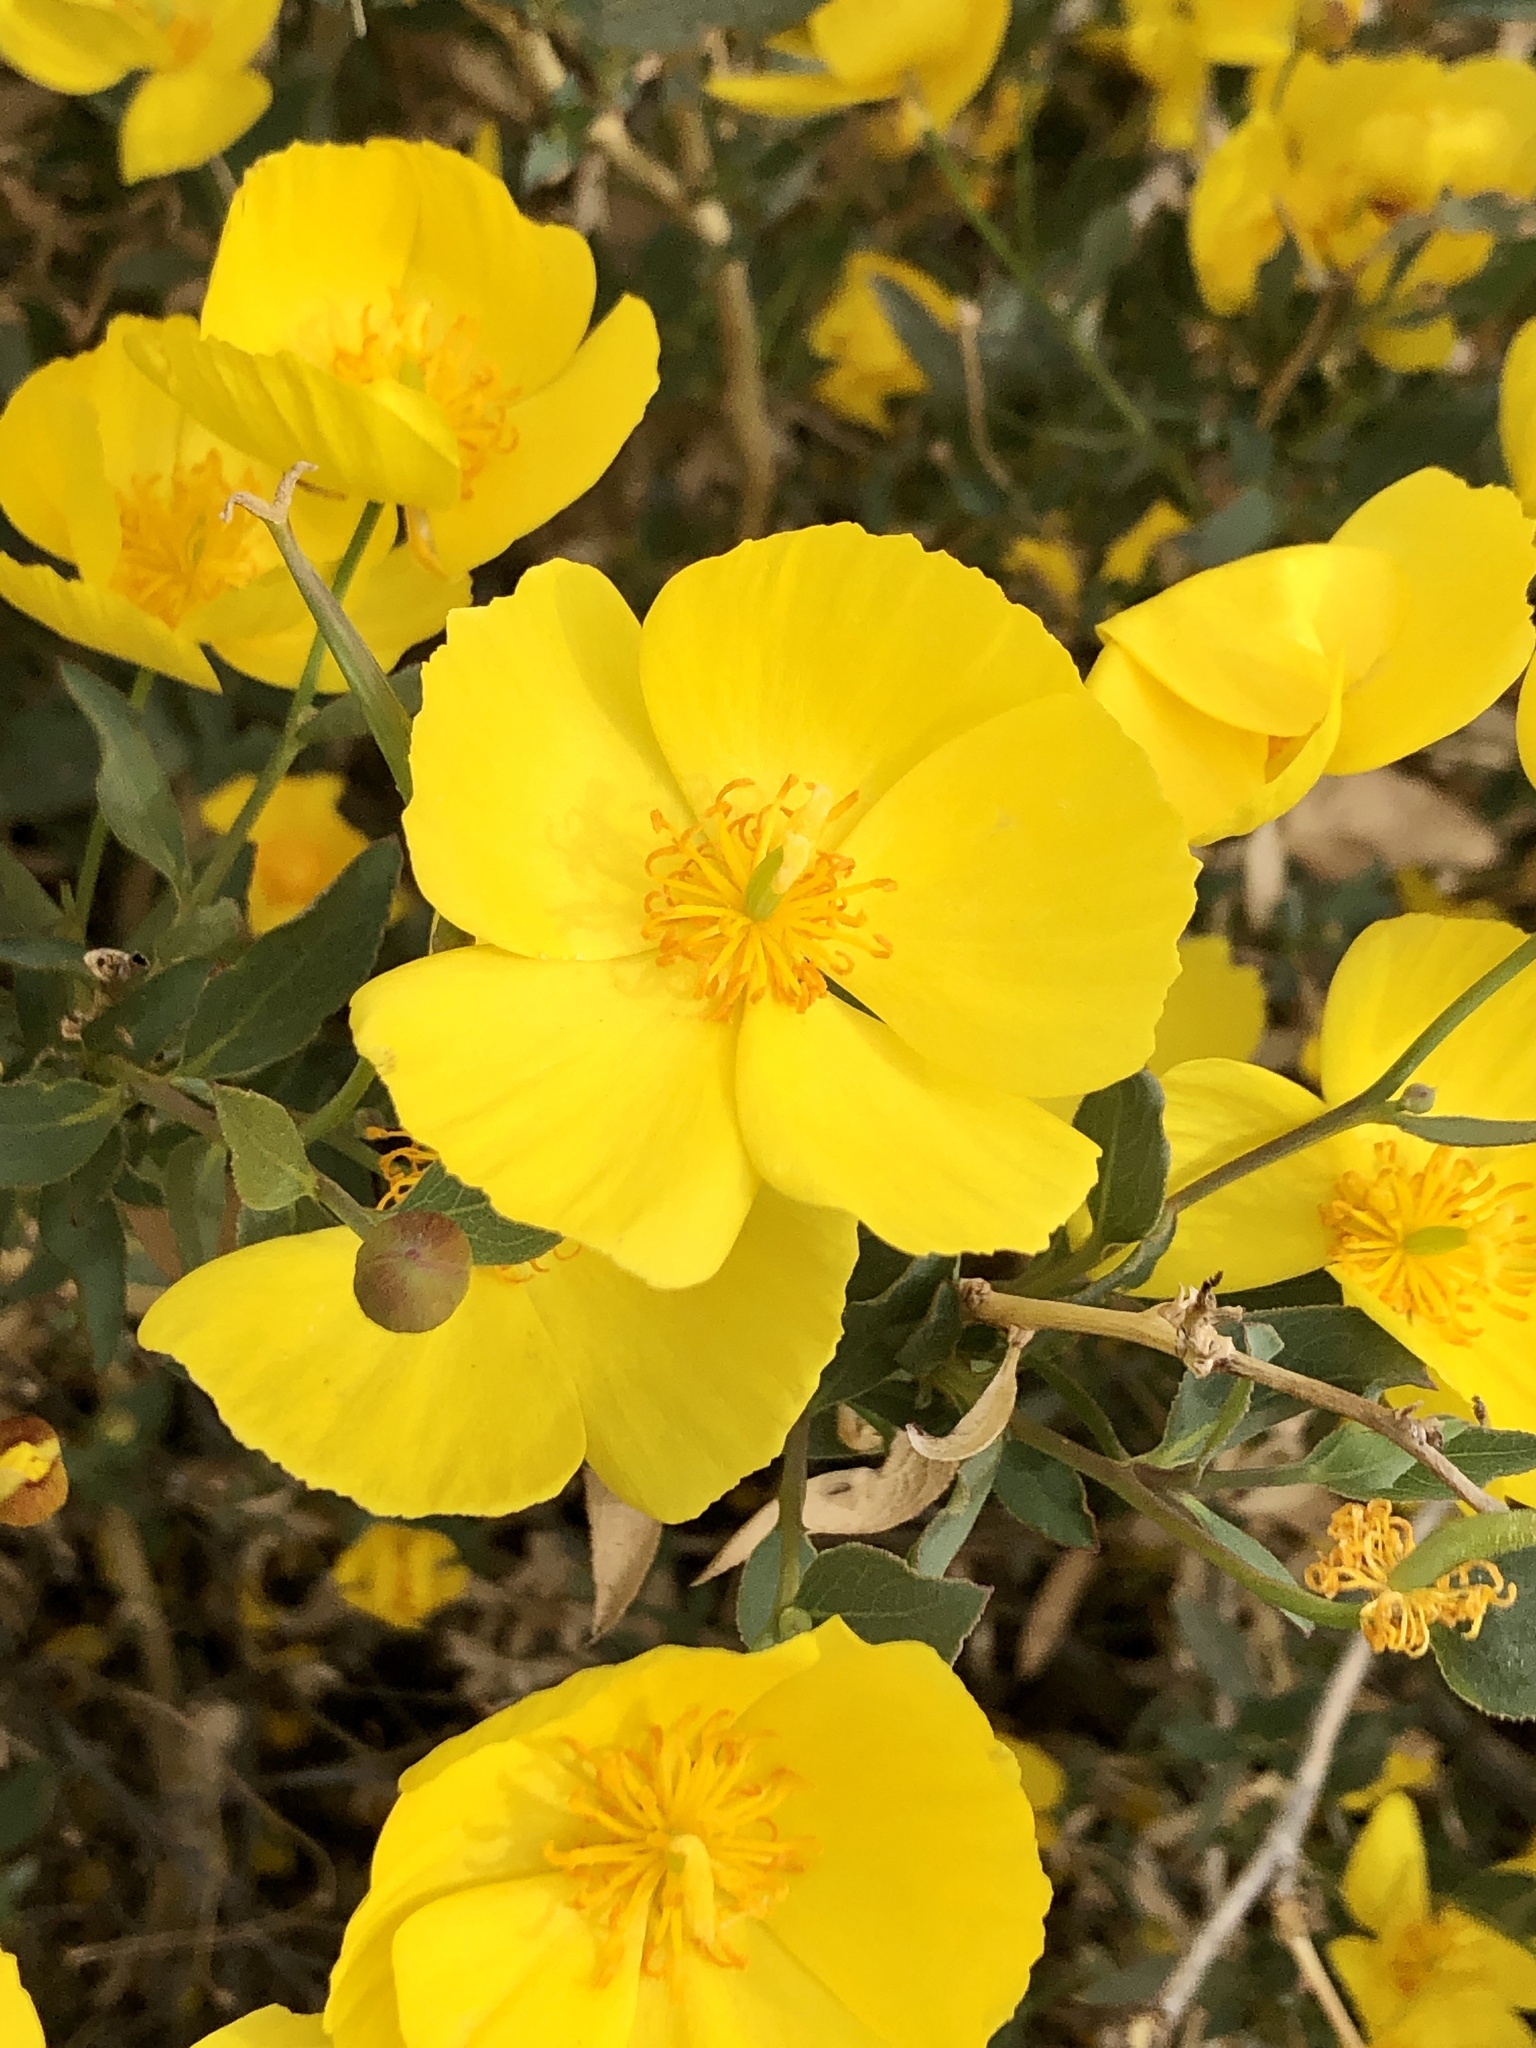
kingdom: Plantae
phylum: Tracheophyta
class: Magnoliopsida
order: Ranunculales
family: Papaveraceae
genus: Dendromecon
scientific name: Dendromecon rigida
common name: Tree poppy
